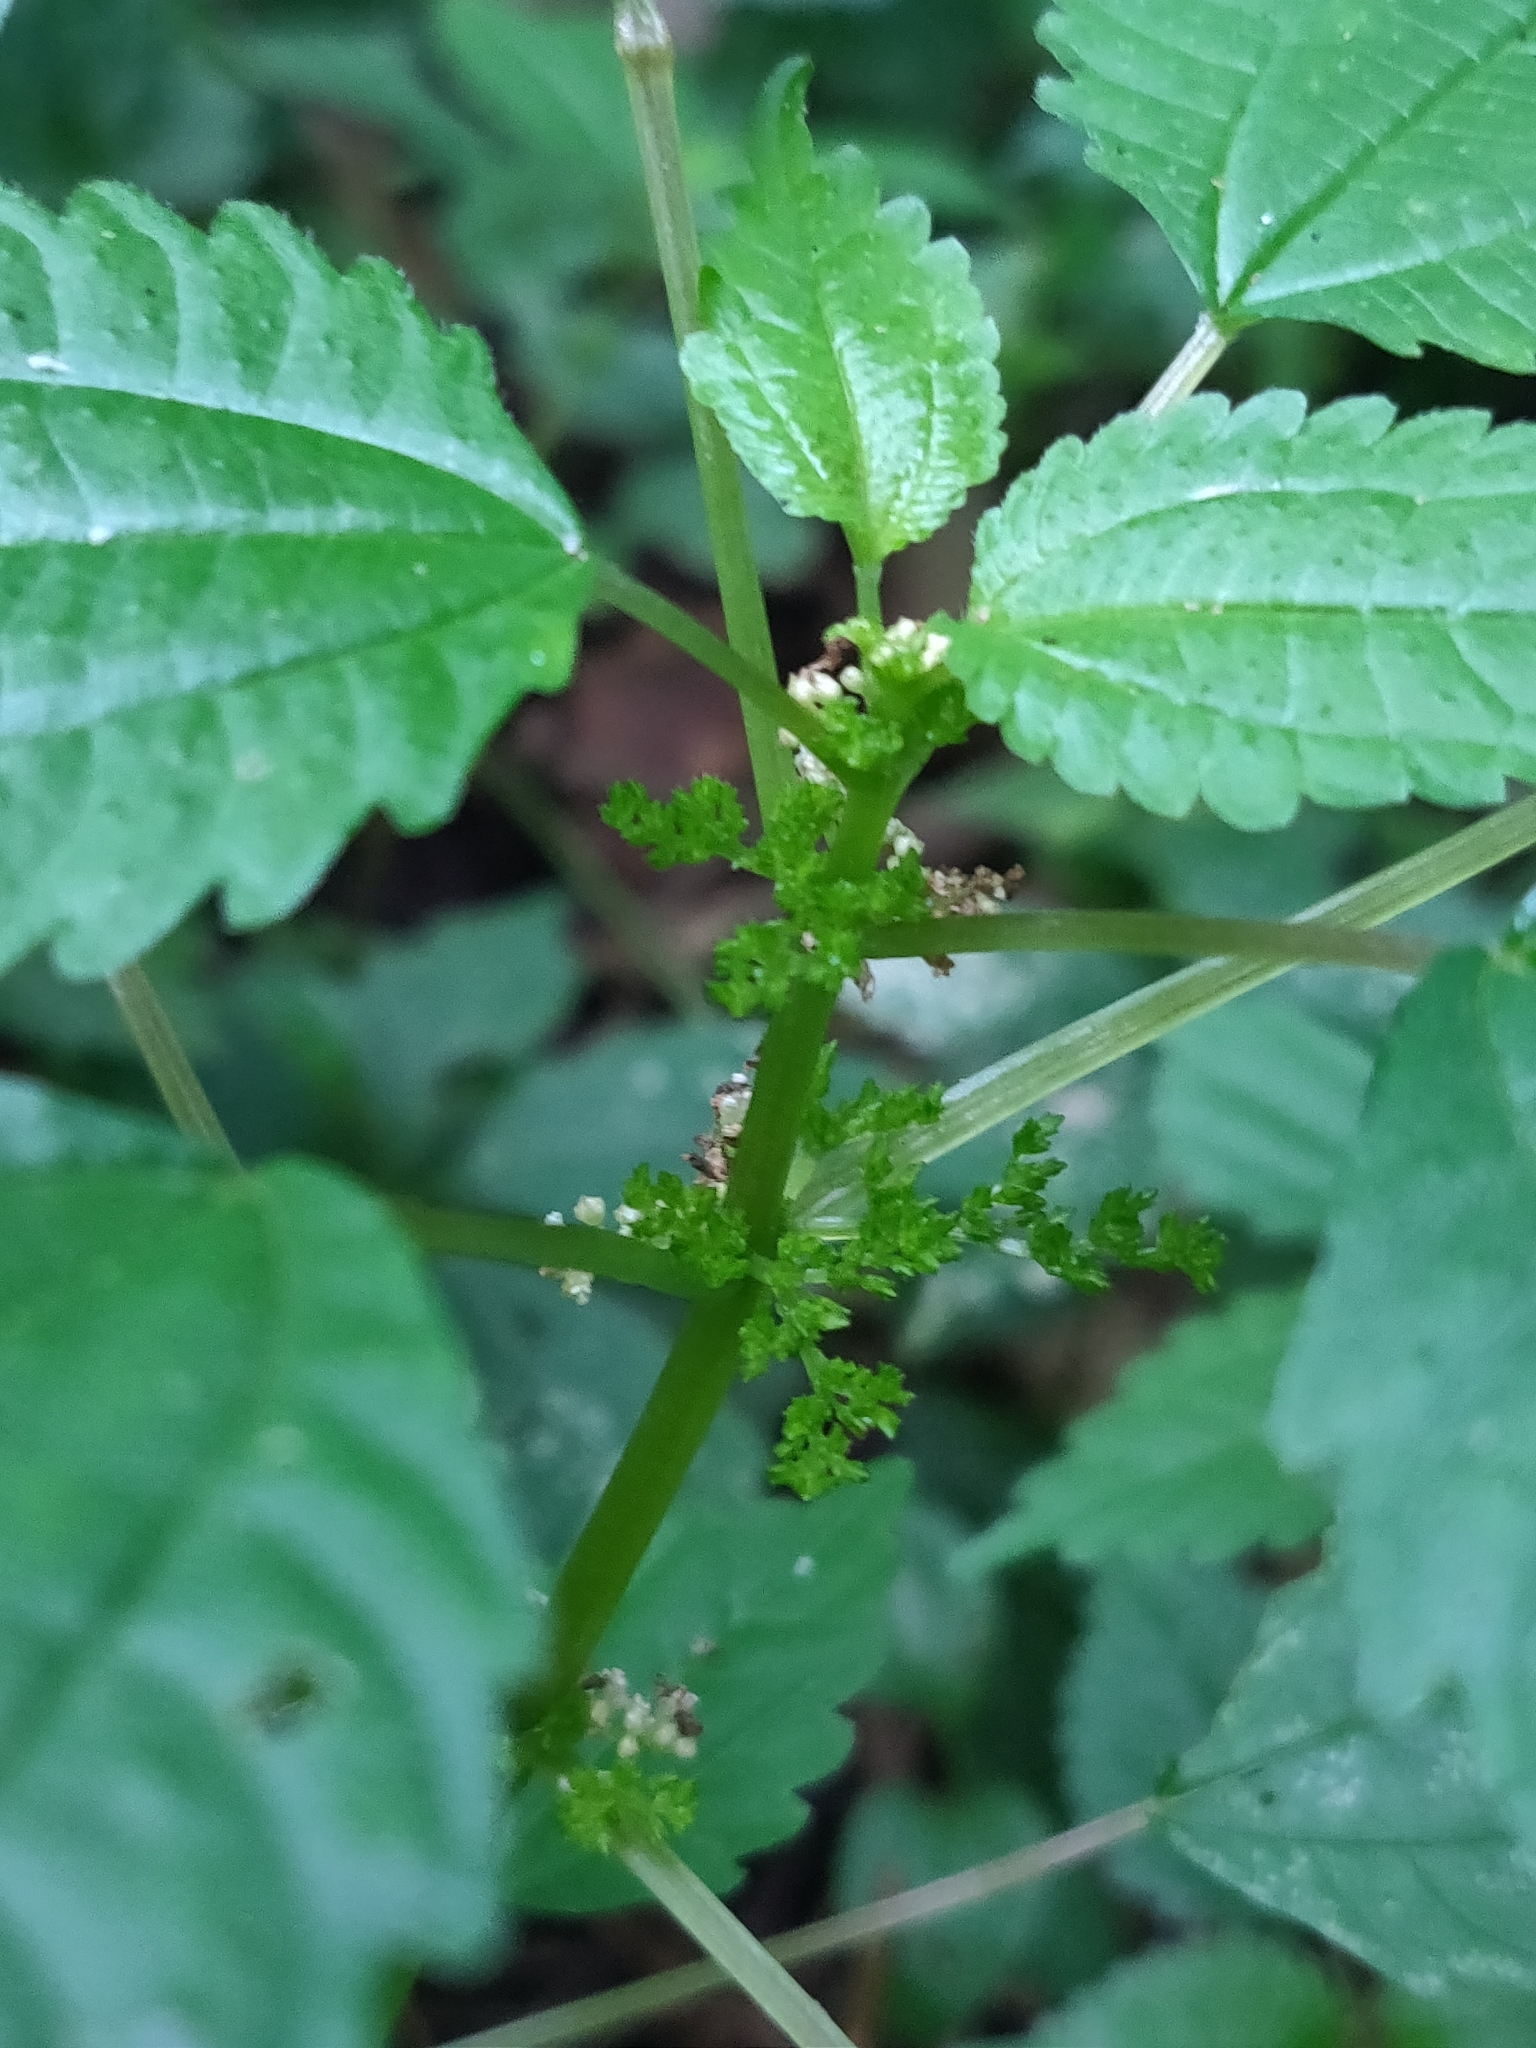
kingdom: Plantae
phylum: Tracheophyta
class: Magnoliopsida
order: Rosales
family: Urticaceae
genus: Pilea
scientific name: Pilea pumila
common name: Clearweed
